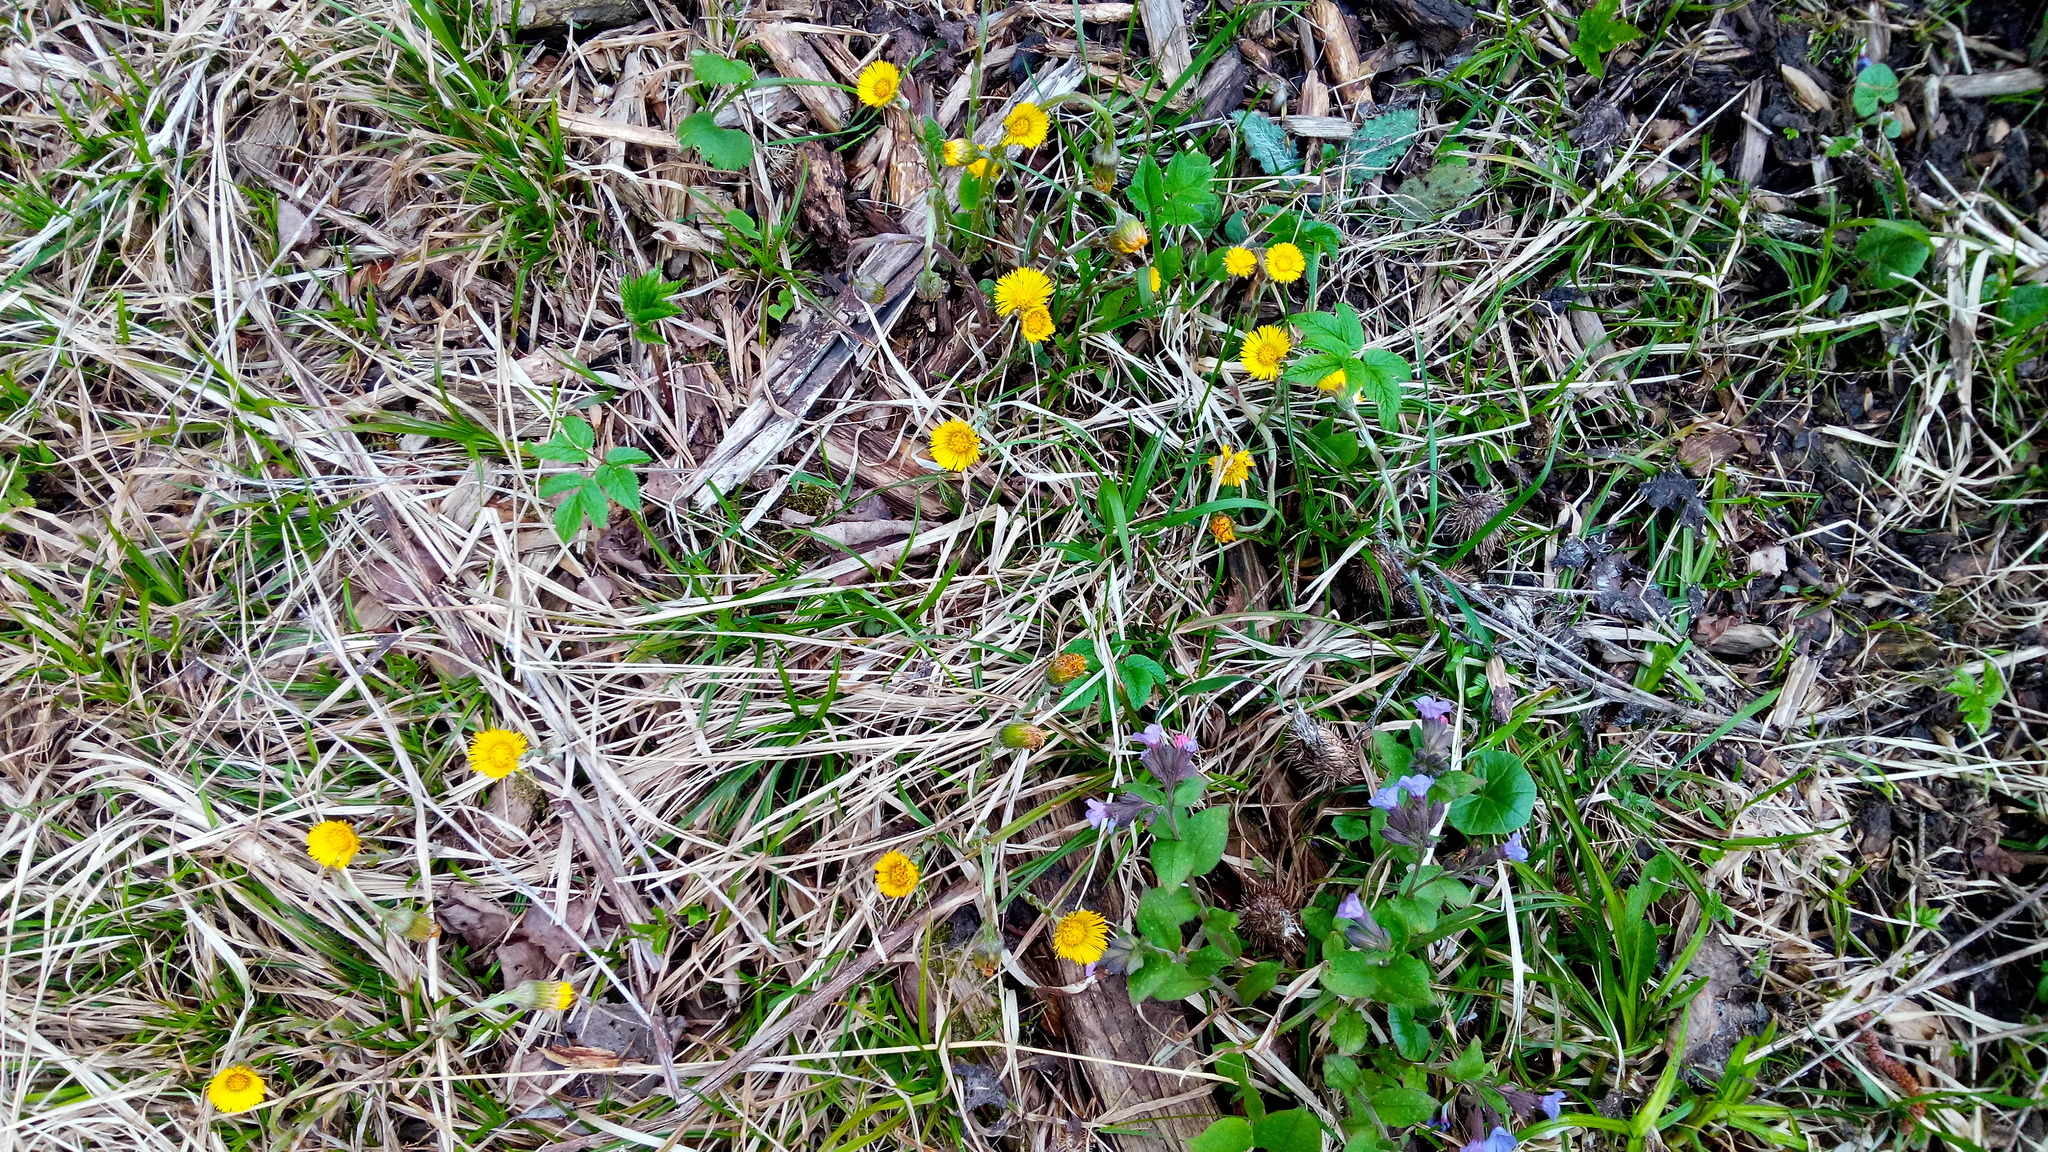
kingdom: Plantae
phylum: Tracheophyta
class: Magnoliopsida
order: Asterales
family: Asteraceae
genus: Tussilago
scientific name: Tussilago farfara
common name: Coltsfoot
